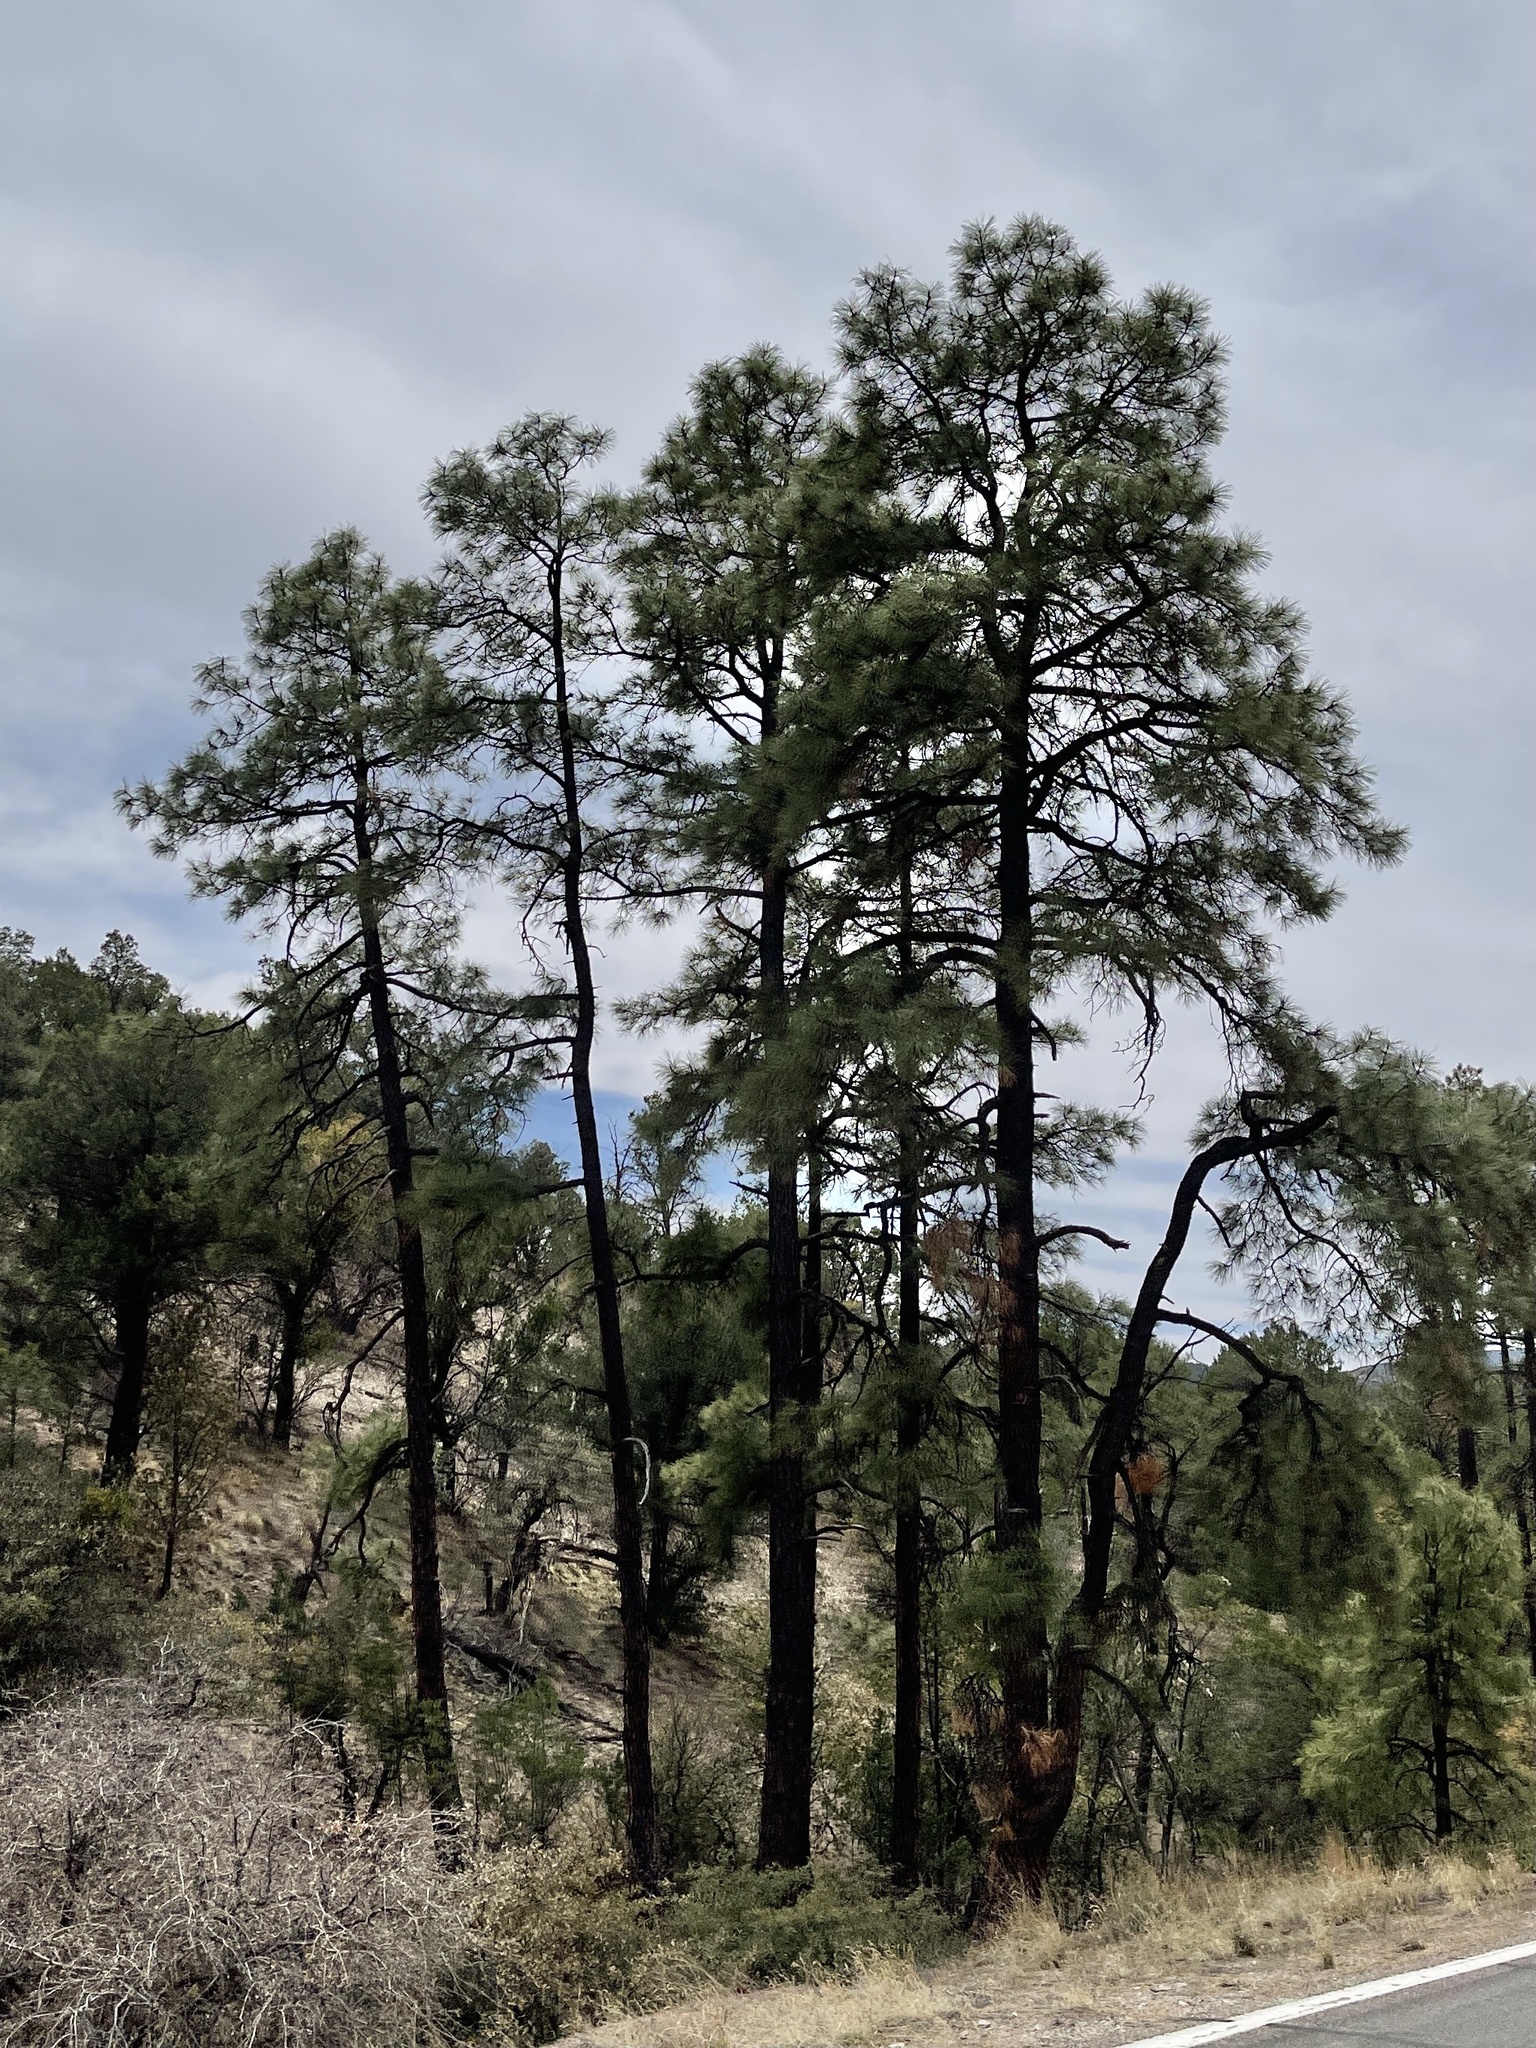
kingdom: Plantae
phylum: Tracheophyta
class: Pinopsida
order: Pinales
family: Pinaceae
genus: Pinus
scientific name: Pinus ponderosa
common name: Western yellow-pine
